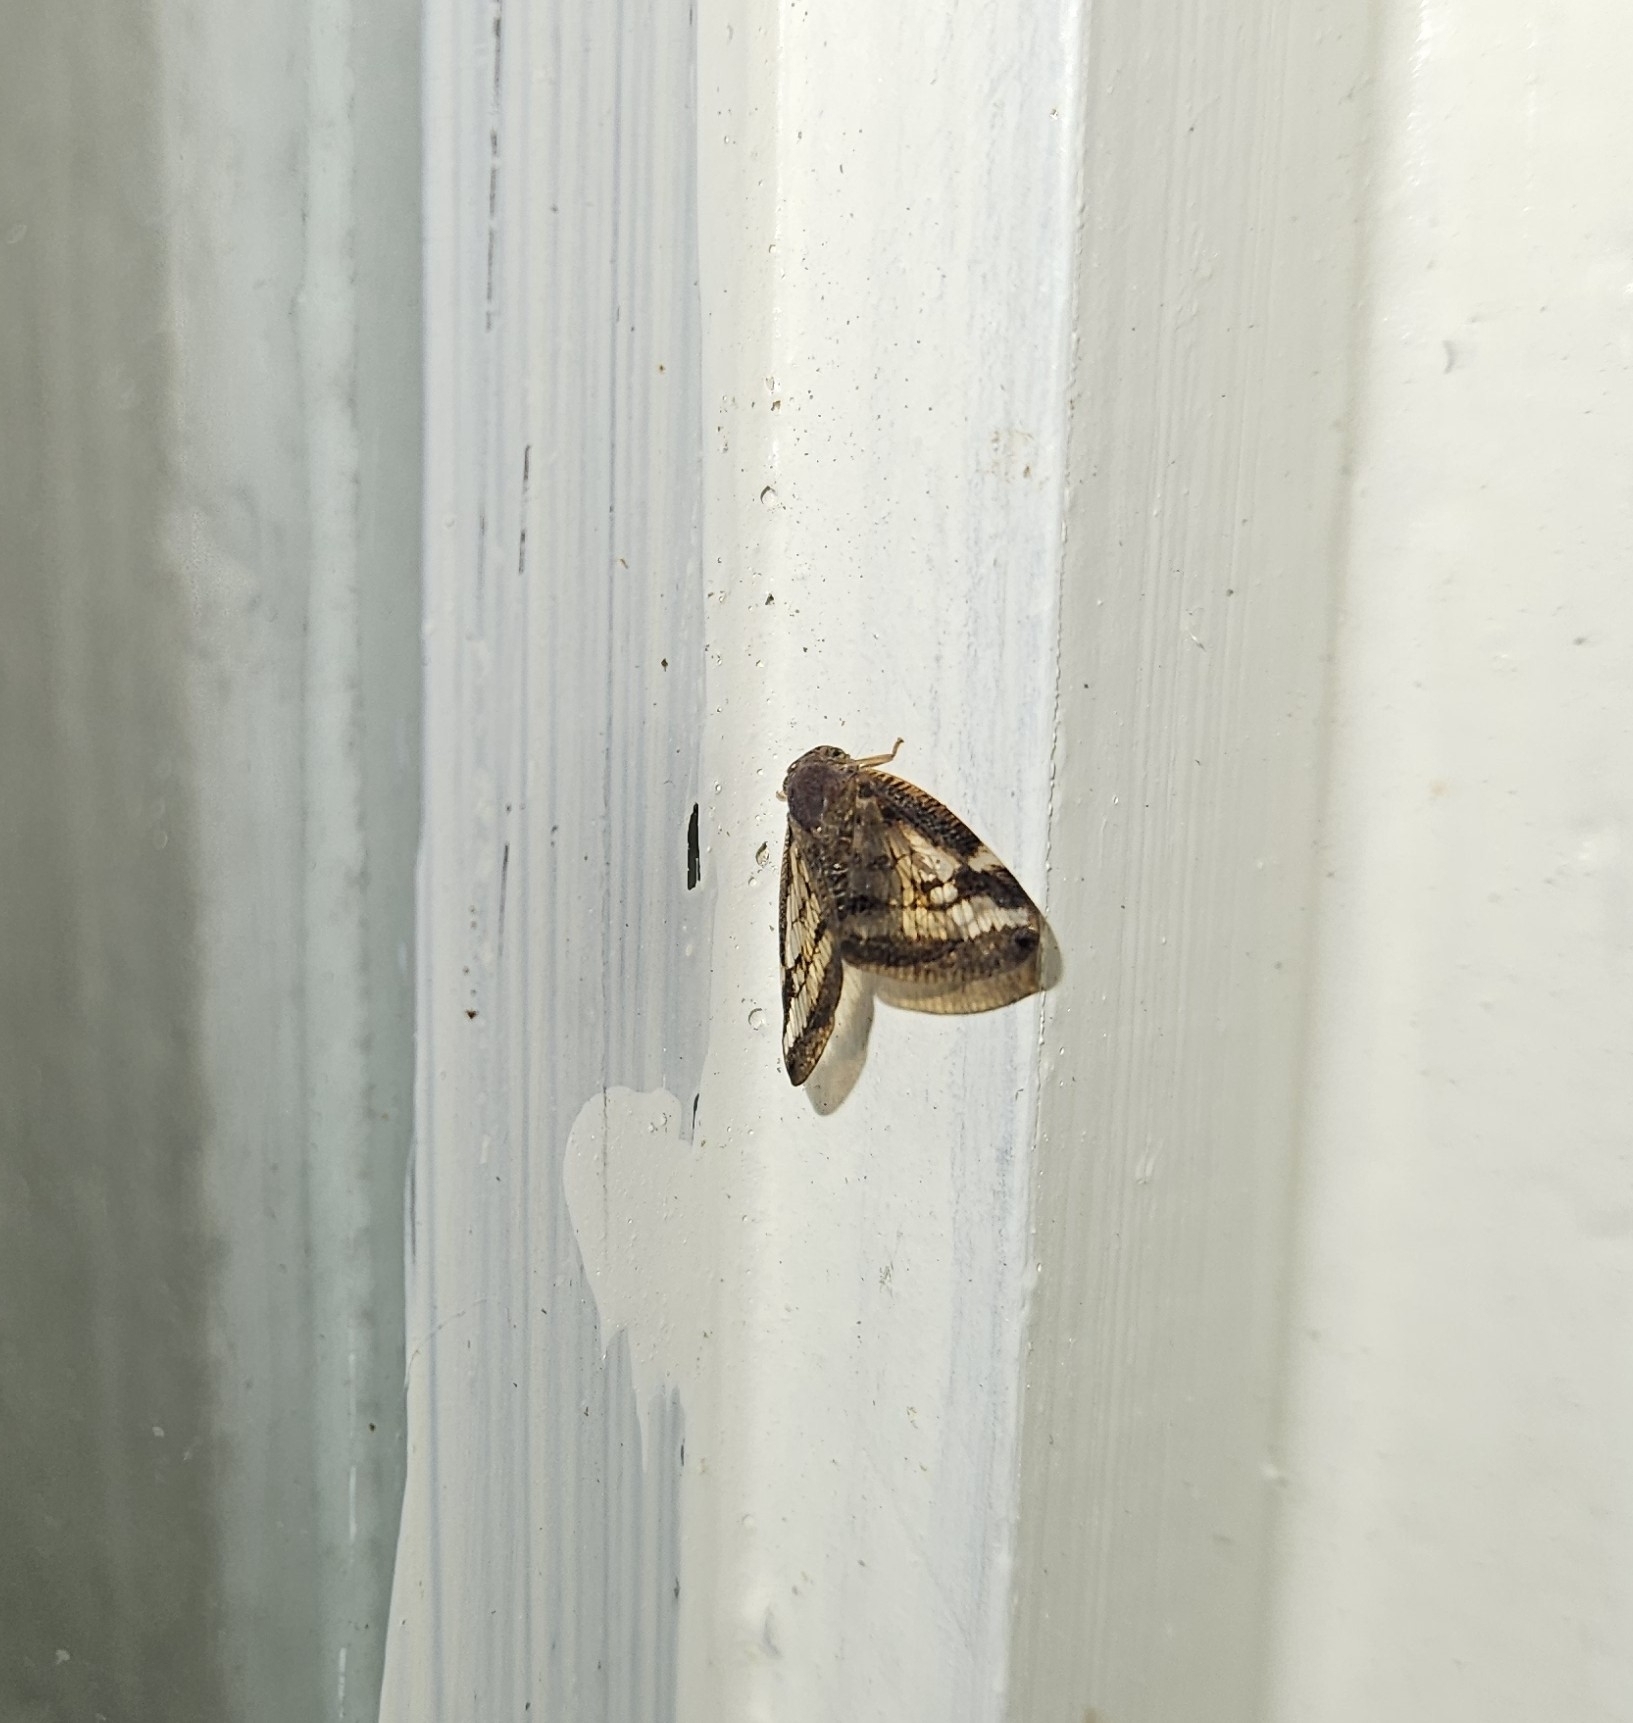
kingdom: Animalia
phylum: Arthropoda
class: Insecta
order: Hemiptera
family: Ricaniidae
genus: Scolypopa
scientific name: Scolypopa australis
